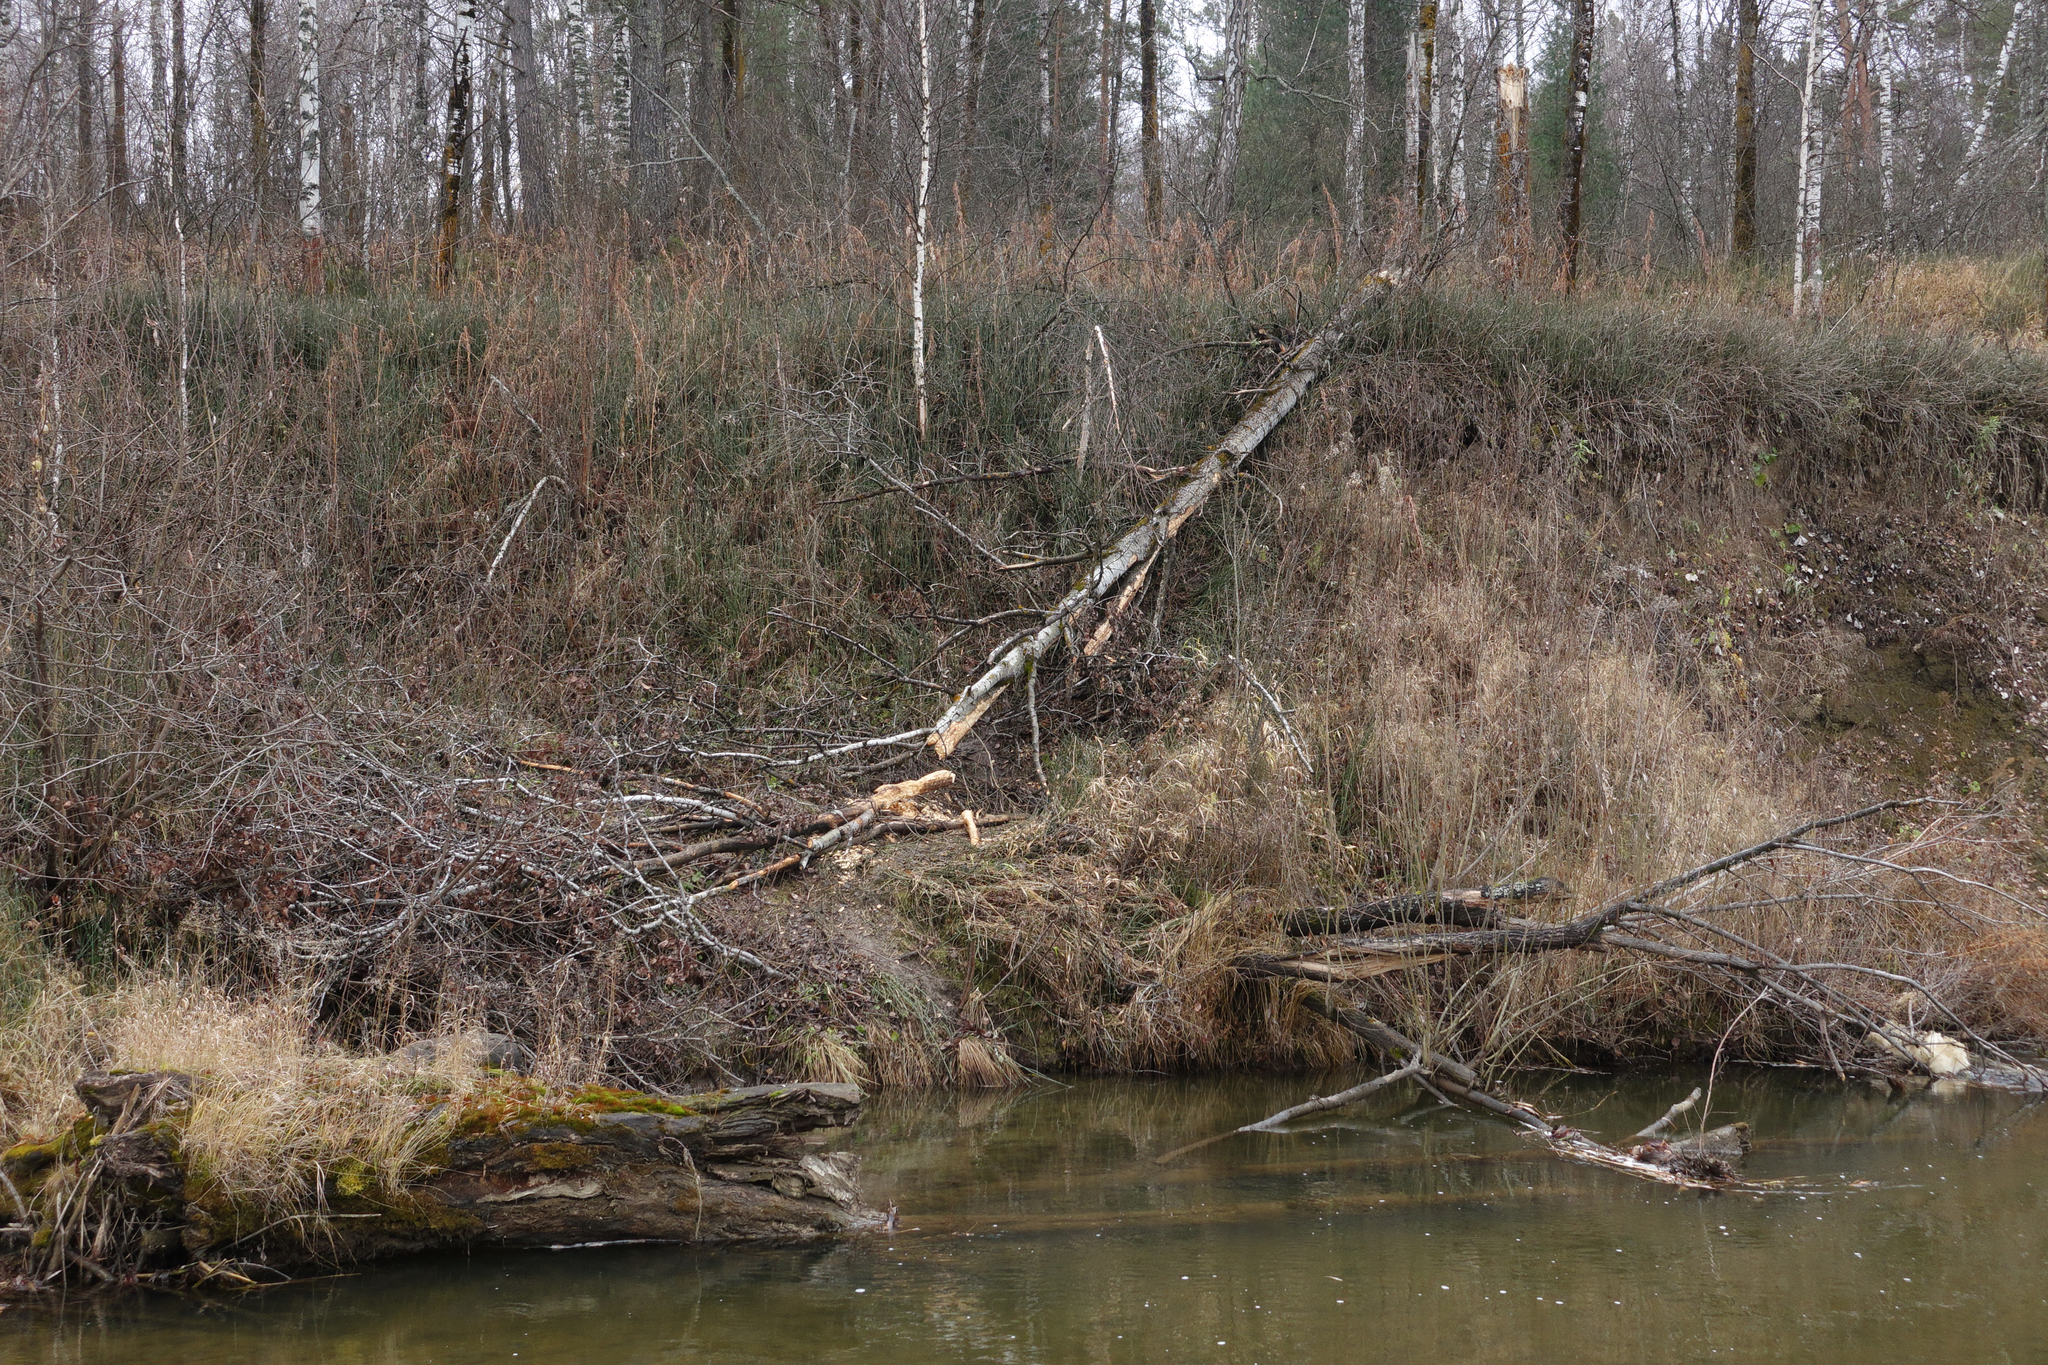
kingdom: Animalia
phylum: Chordata
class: Mammalia
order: Rodentia
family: Castoridae
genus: Castor
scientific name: Castor fiber
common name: Eurasian beaver
